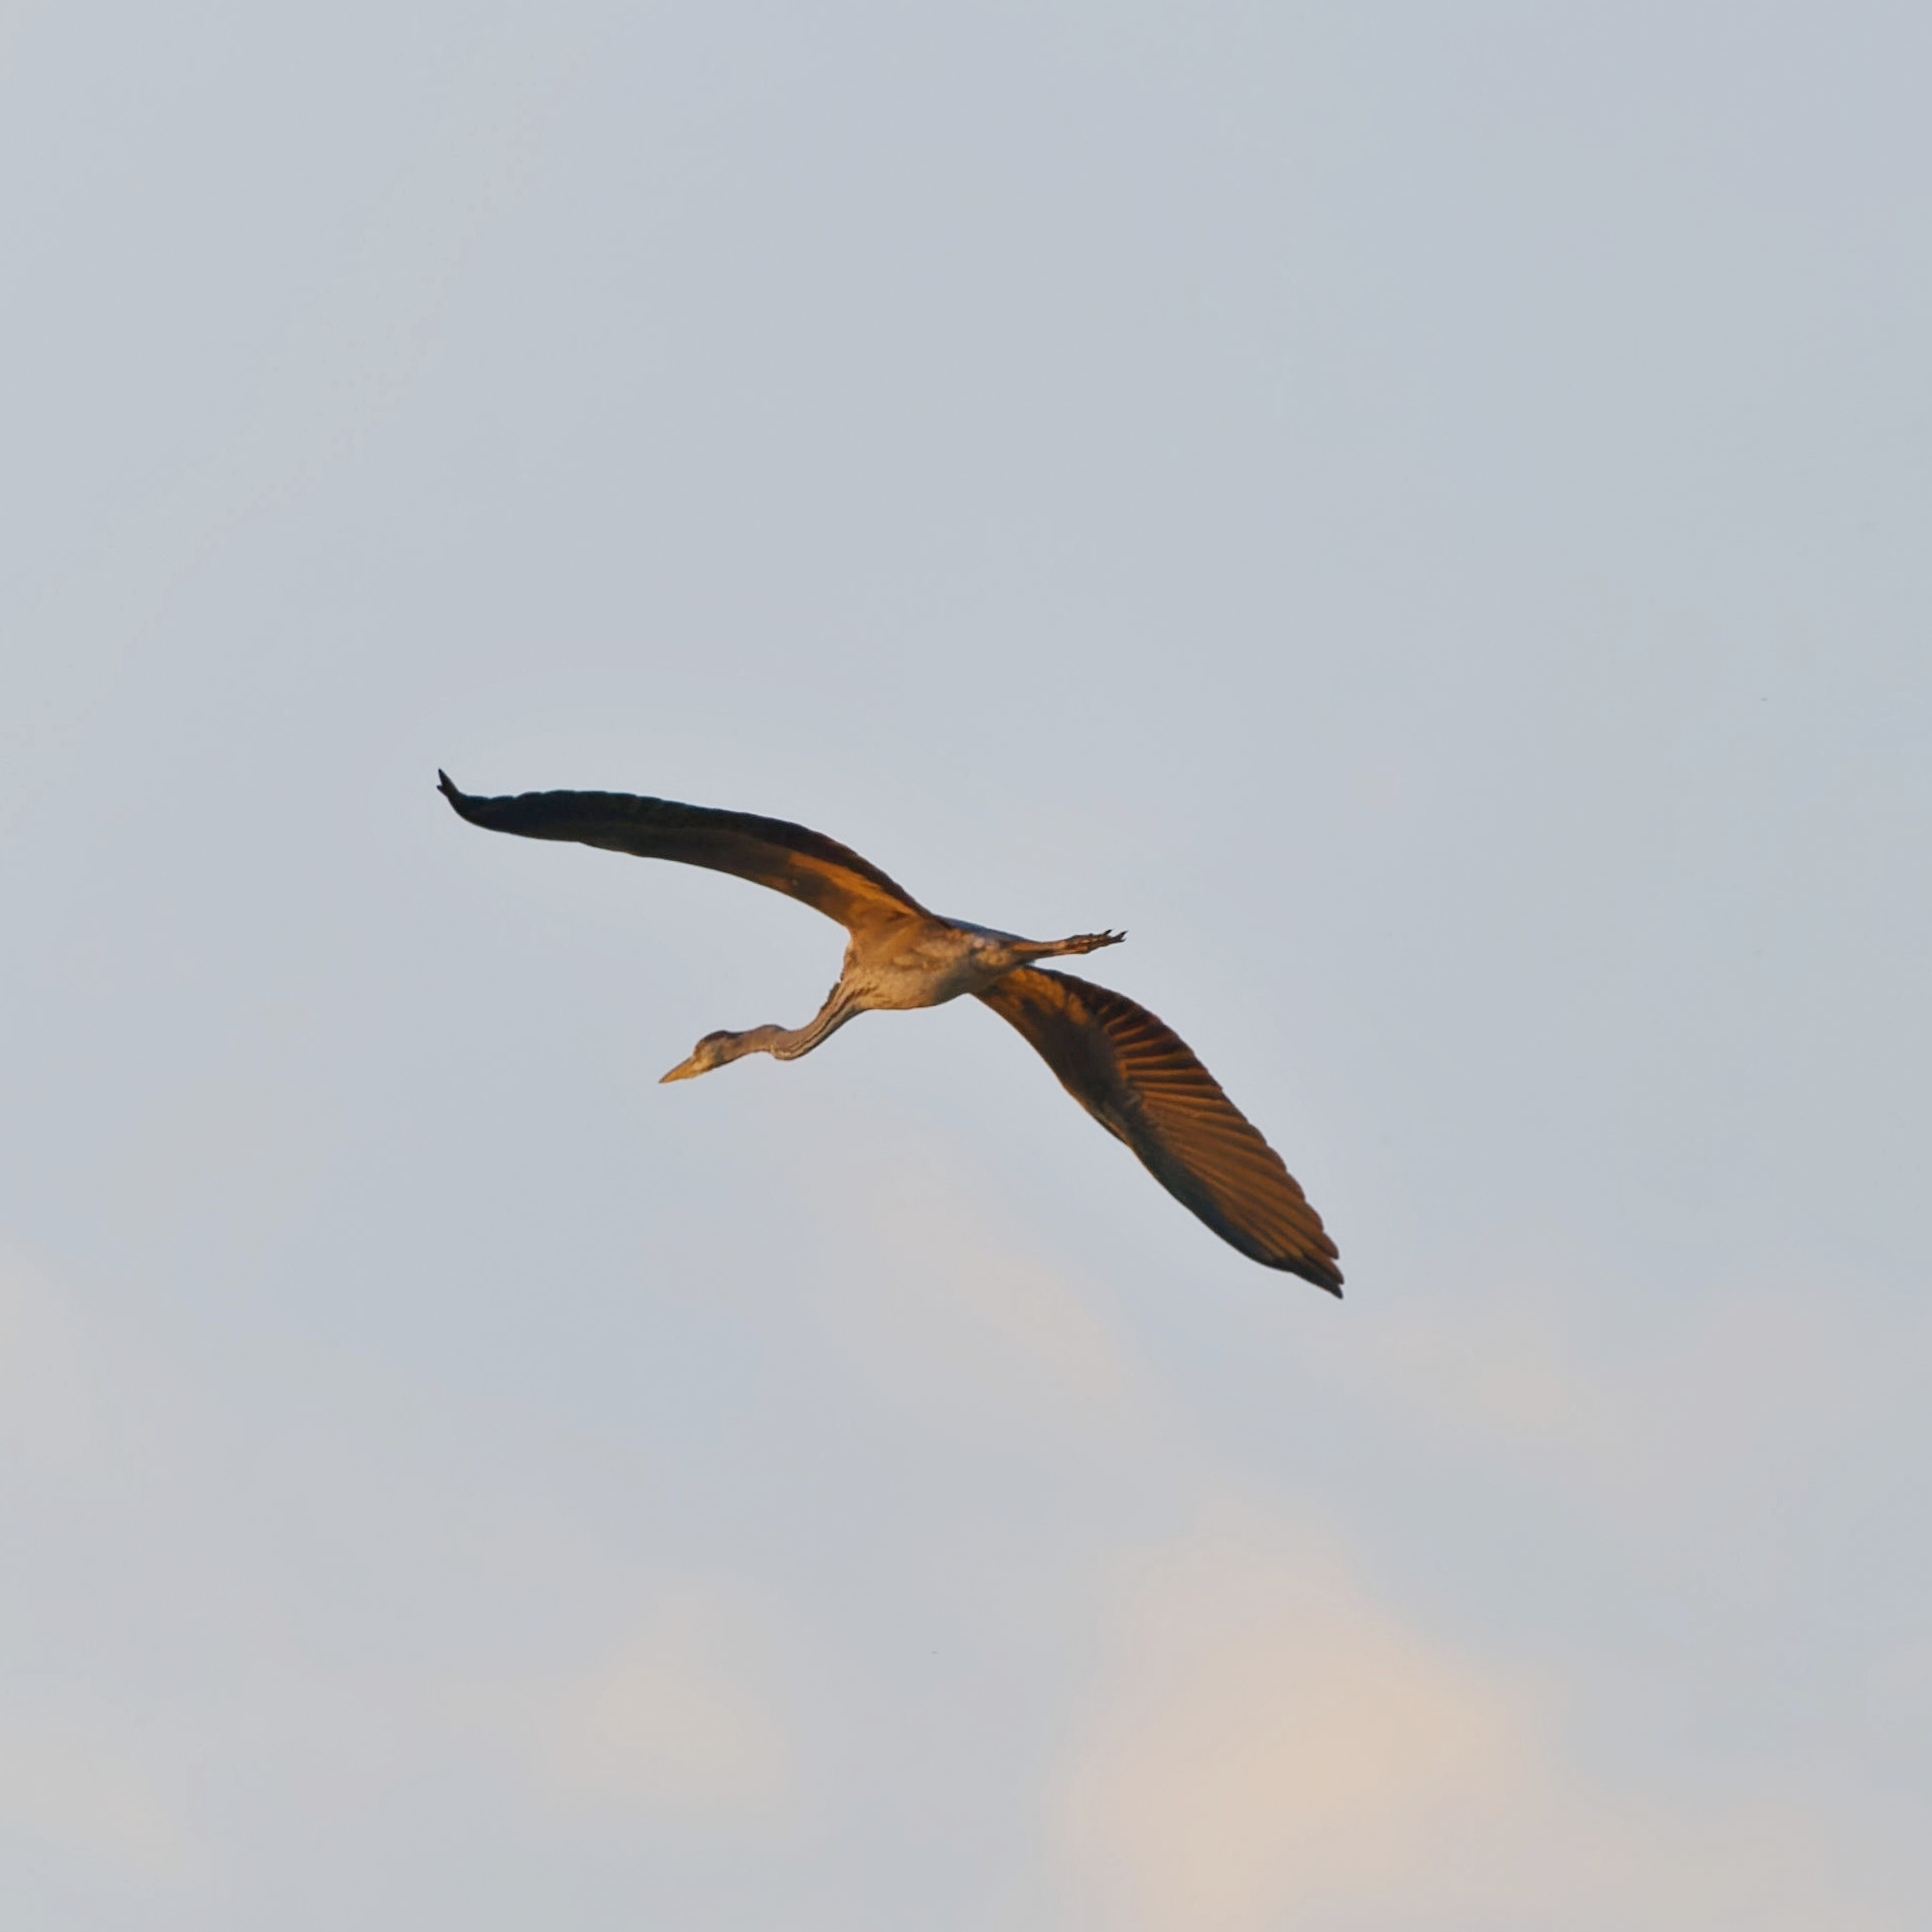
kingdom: Animalia
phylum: Chordata
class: Aves
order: Pelecaniformes
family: Ardeidae
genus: Ardea
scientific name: Ardea cinerea
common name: Grey heron
